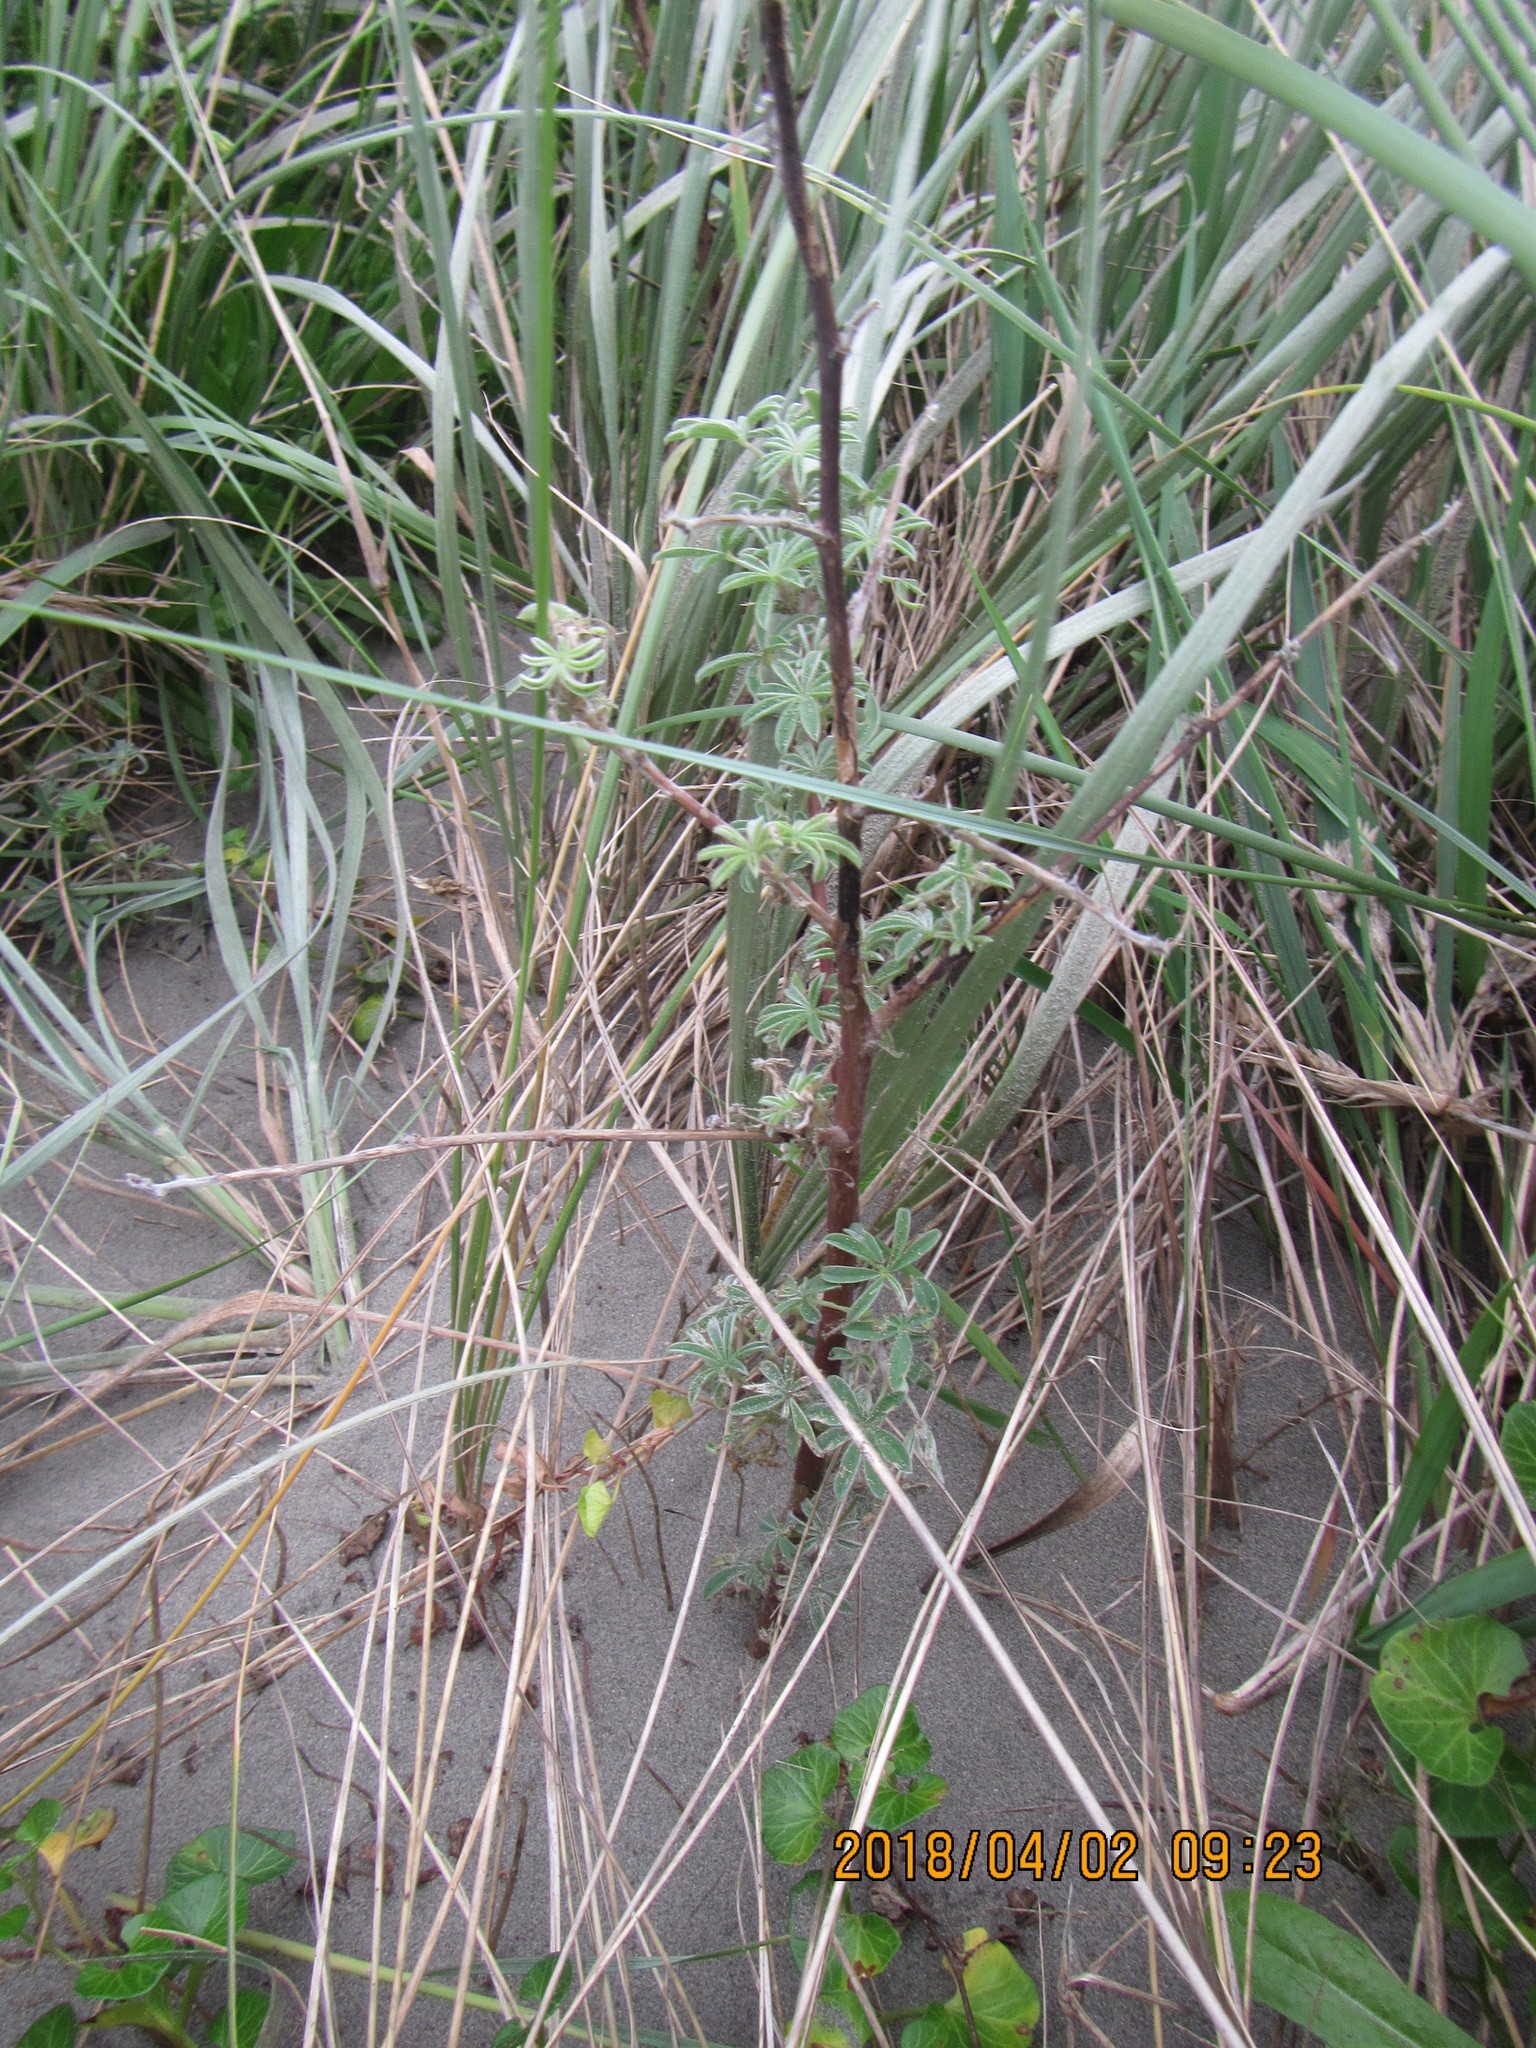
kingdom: Plantae
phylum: Tracheophyta
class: Magnoliopsida
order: Fabales
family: Fabaceae
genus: Lupinus
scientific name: Lupinus arboreus
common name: Yellow bush lupine
